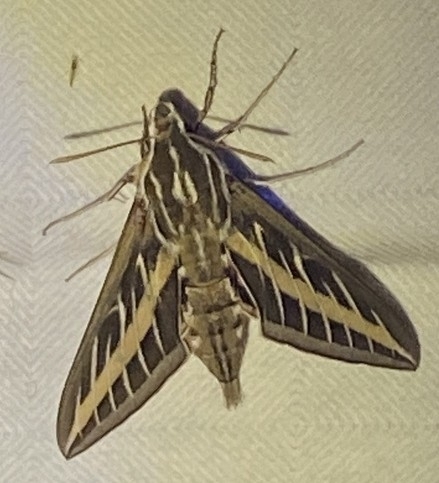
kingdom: Animalia
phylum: Arthropoda
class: Insecta
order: Lepidoptera
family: Sphingidae
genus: Hyles
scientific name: Hyles lineata
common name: White-lined sphinx
